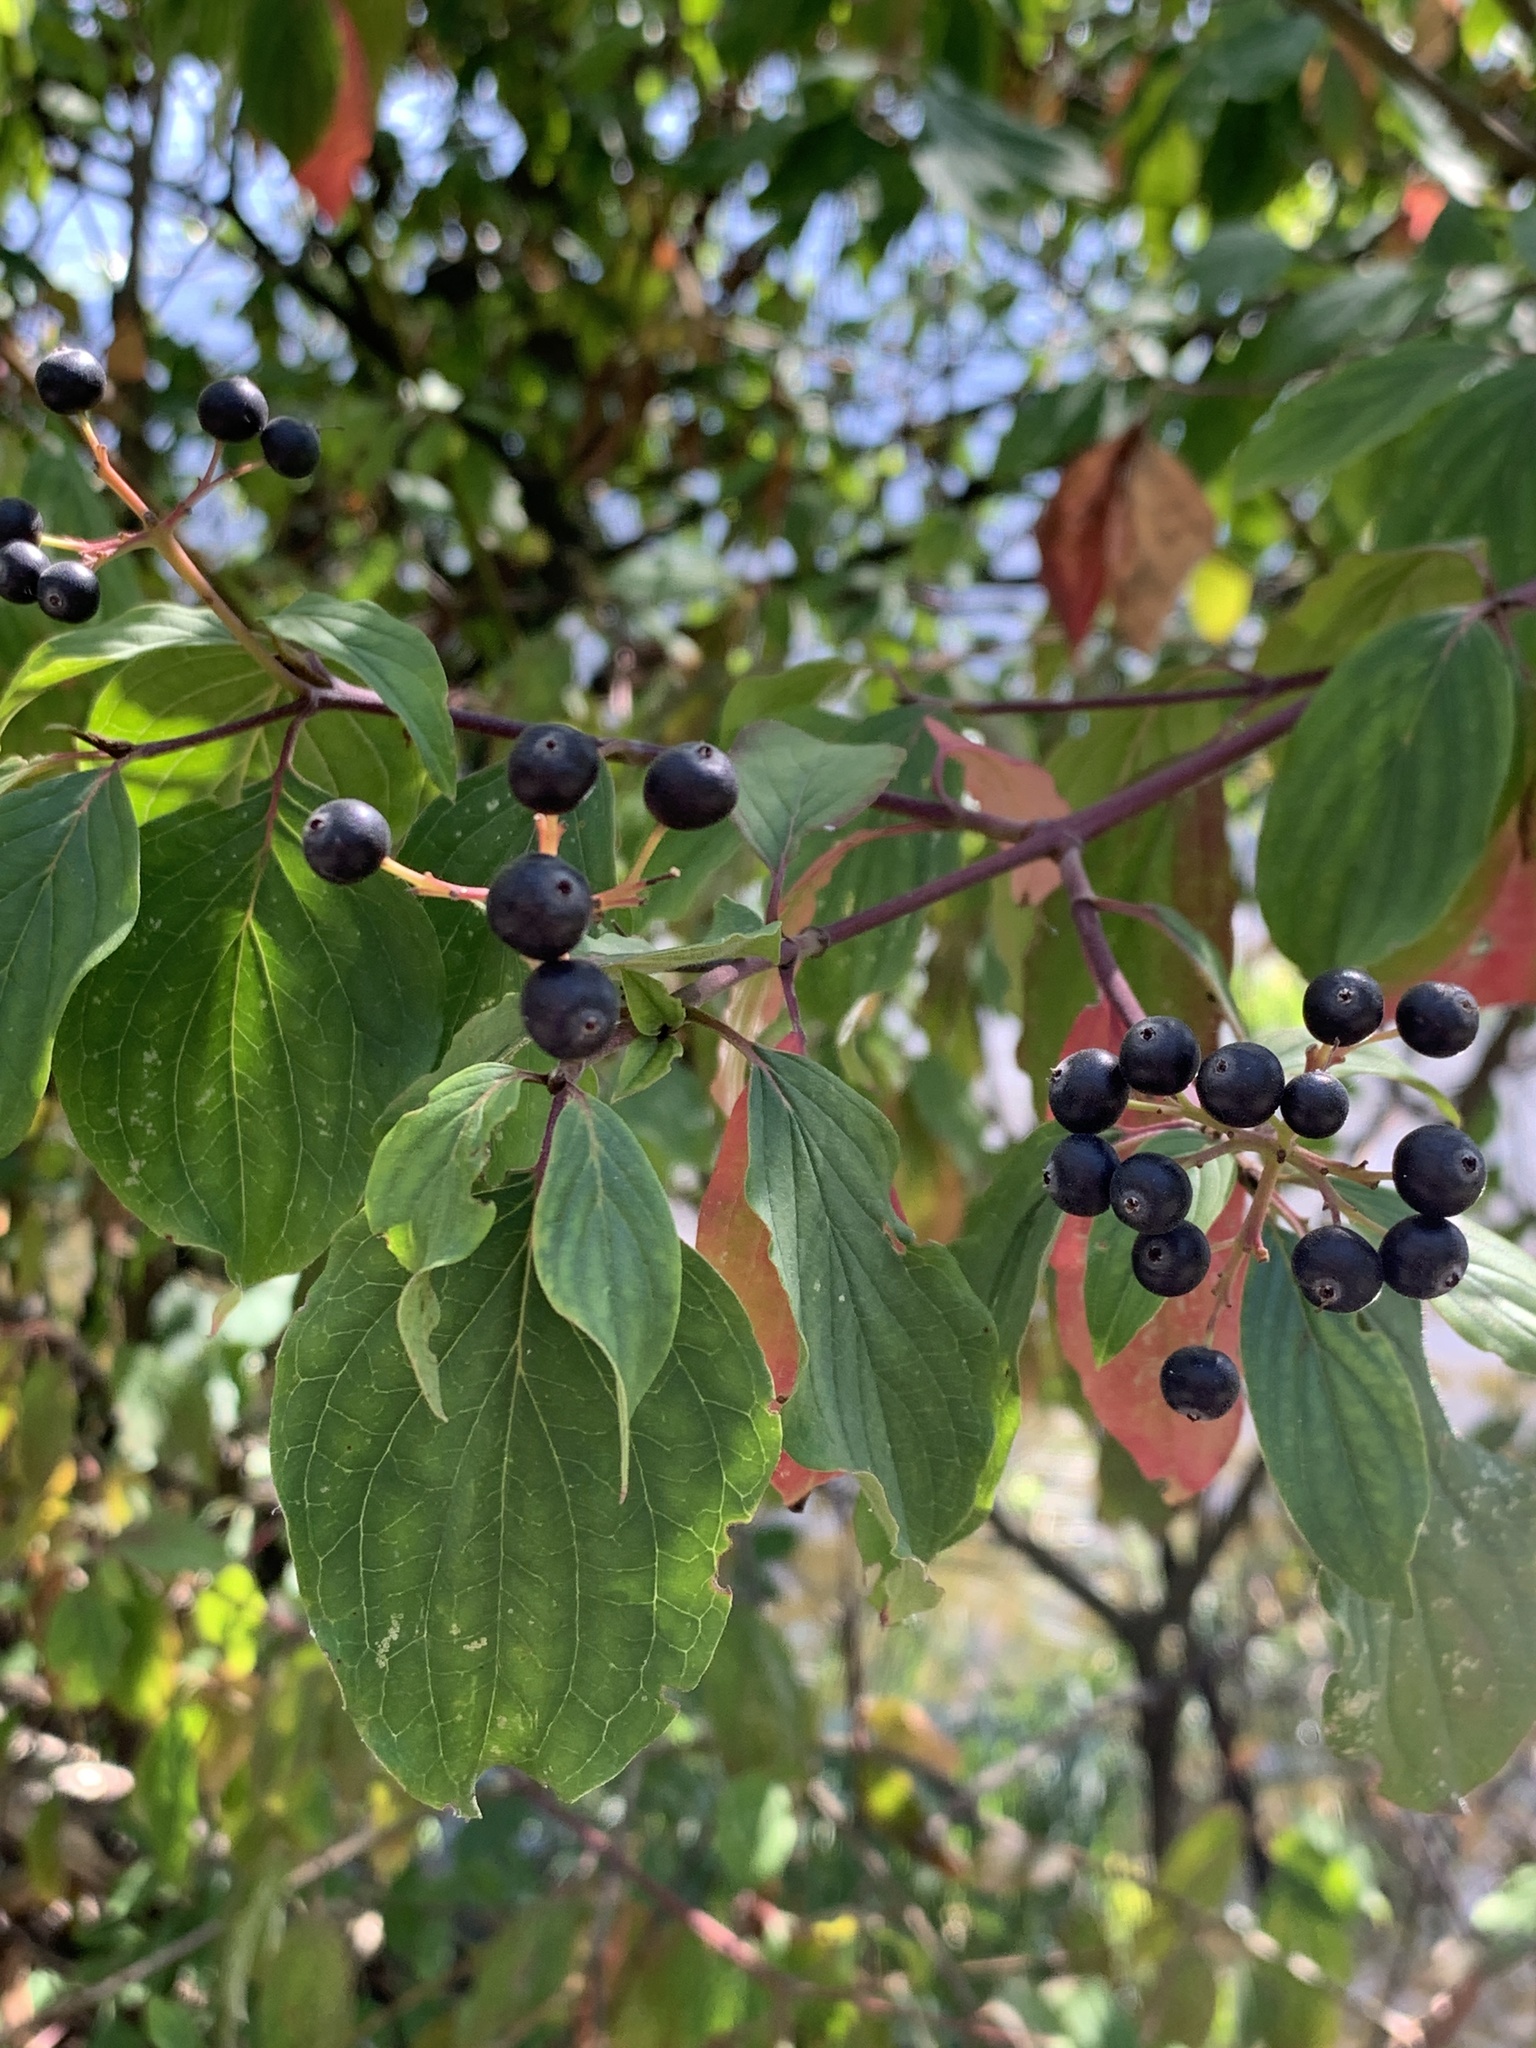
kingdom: Plantae
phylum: Tracheophyta
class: Magnoliopsida
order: Cornales
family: Cornaceae
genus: Cornus
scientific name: Cornus sanguinea
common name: Dogwood
